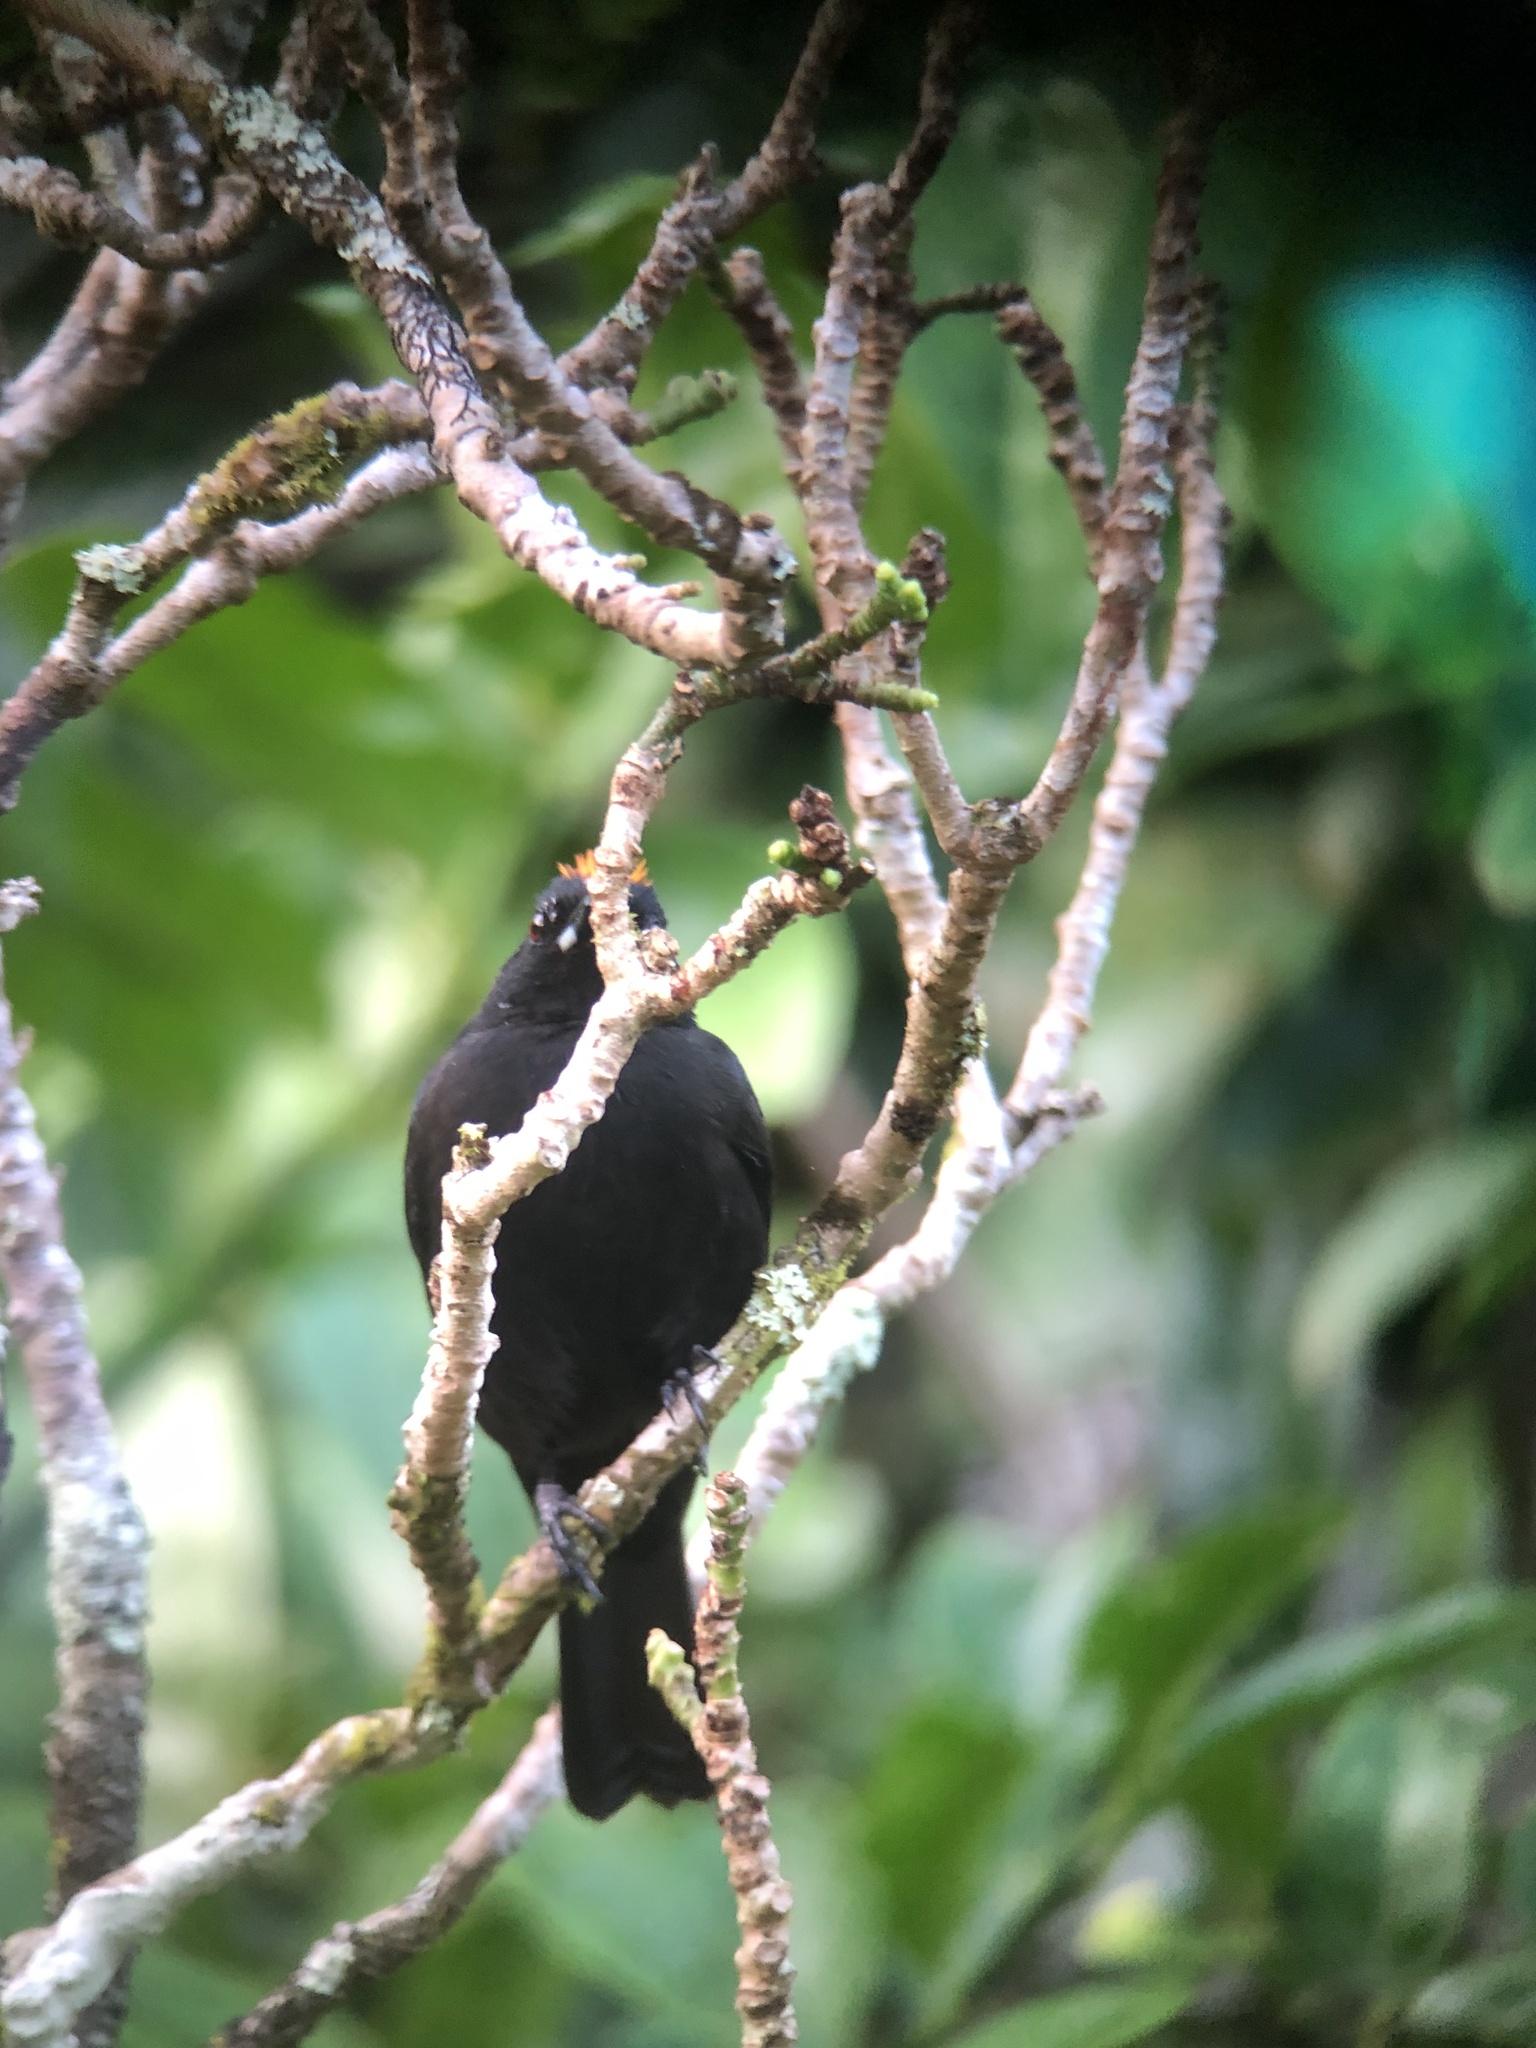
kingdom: Animalia
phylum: Chordata
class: Aves
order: Passeriformes
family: Thraupidae
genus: Tachyphonus
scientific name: Tachyphonus delatrii
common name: Tawny-crested tanager
